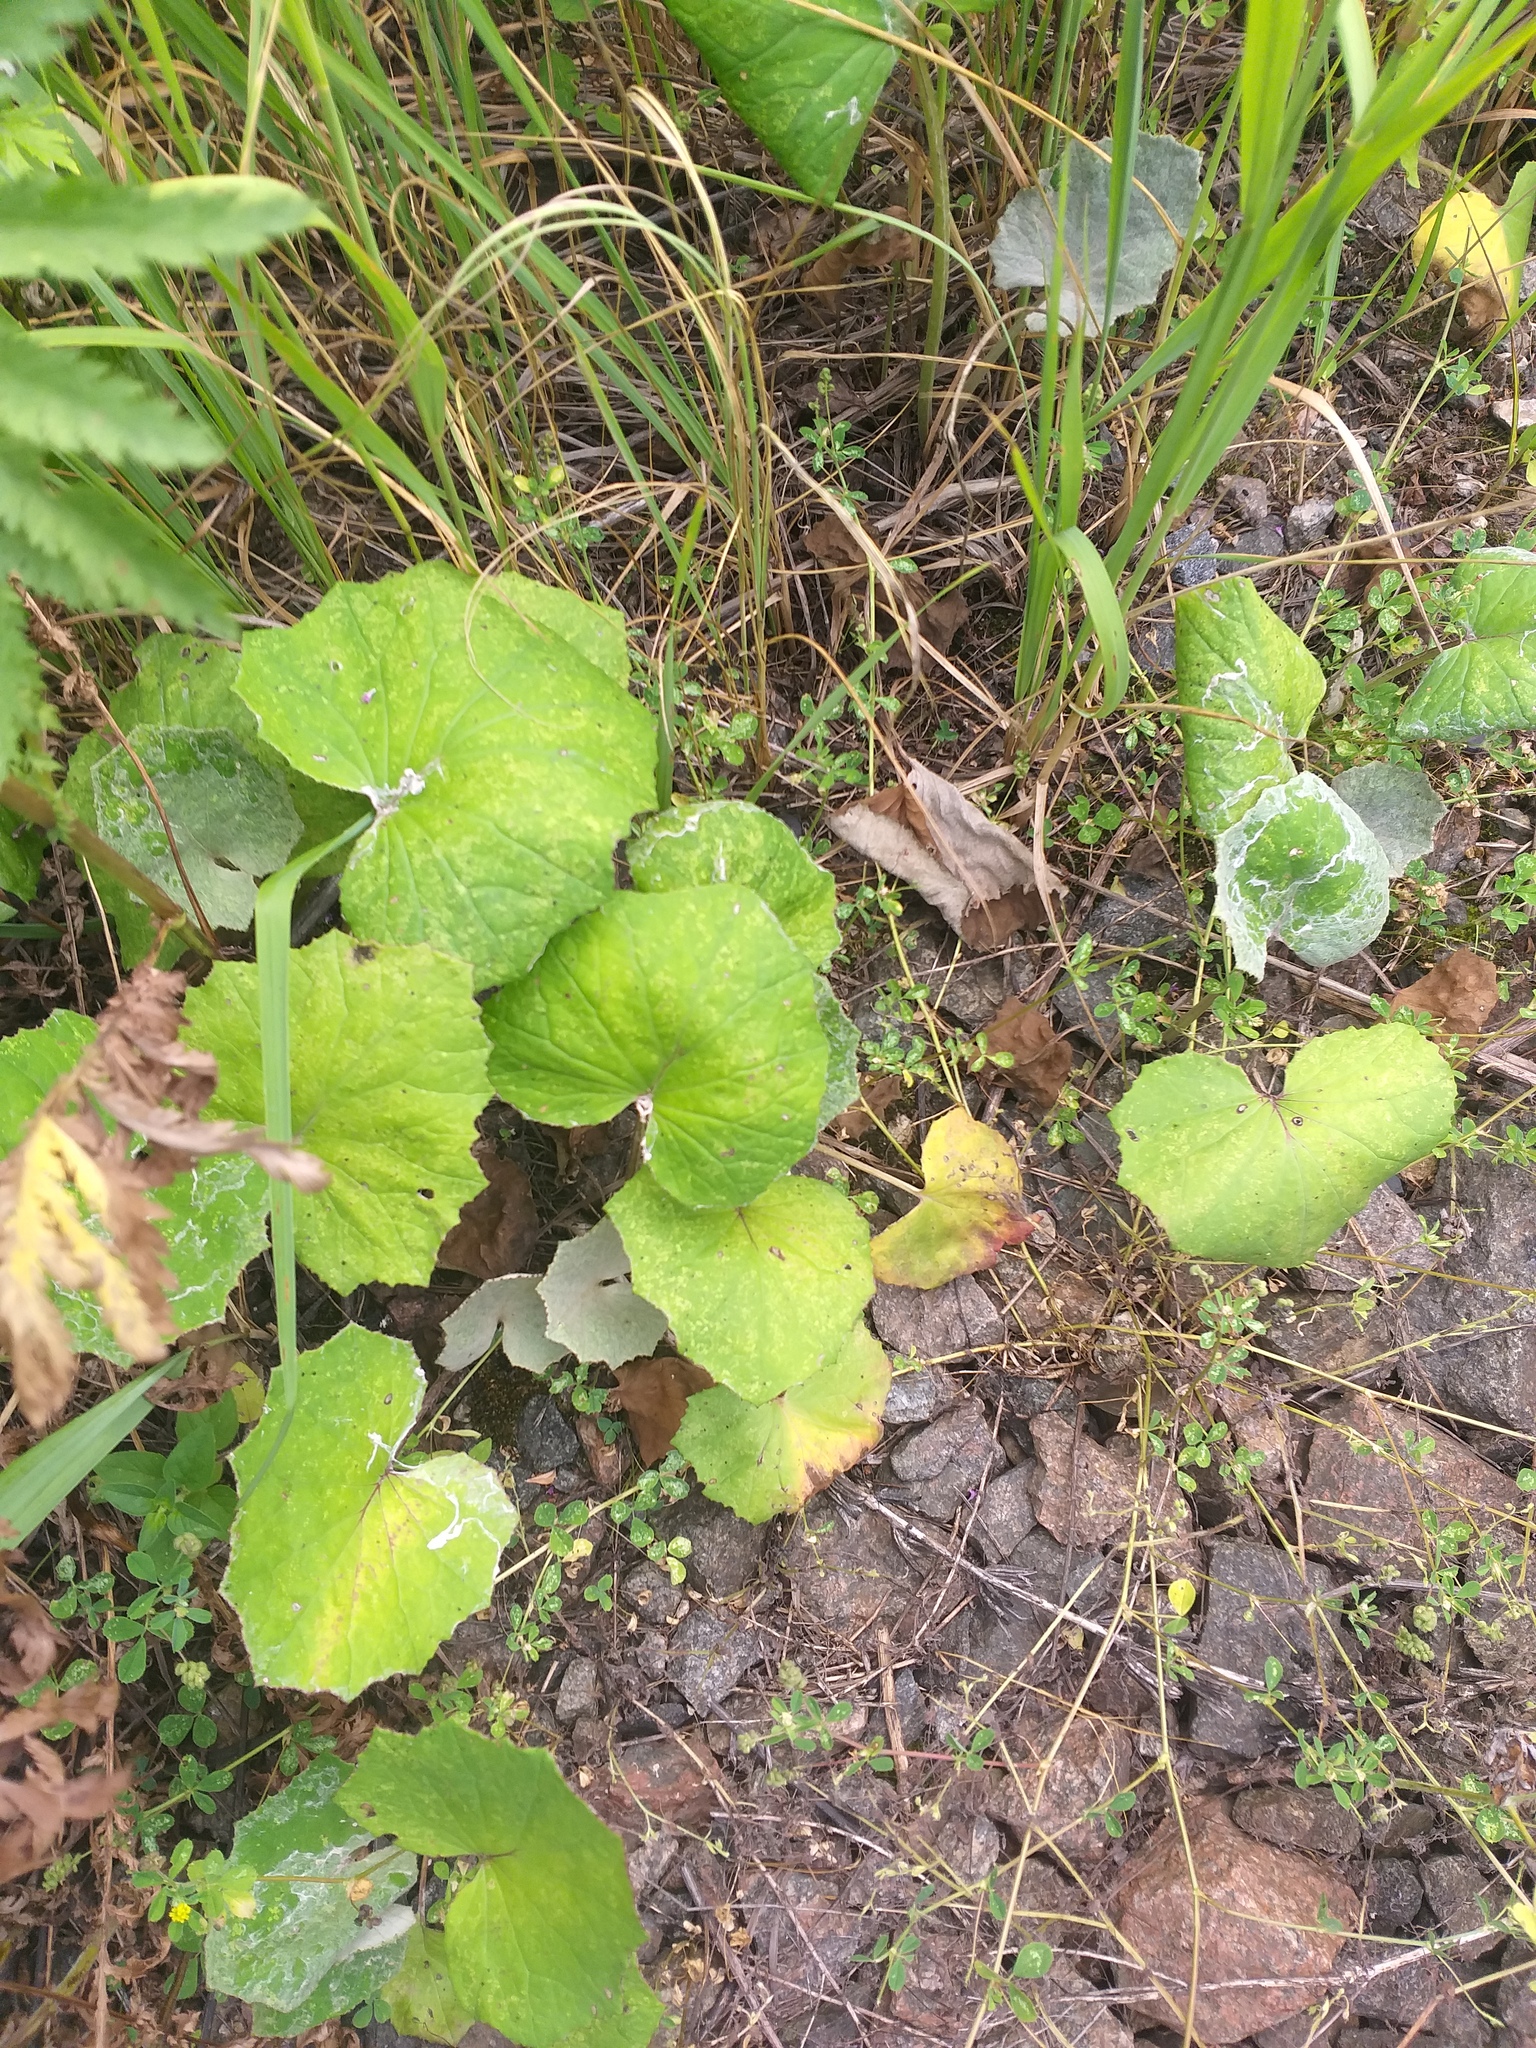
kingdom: Plantae
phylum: Tracheophyta
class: Magnoliopsida
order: Asterales
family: Asteraceae
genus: Tussilago
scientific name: Tussilago farfara
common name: Coltsfoot
